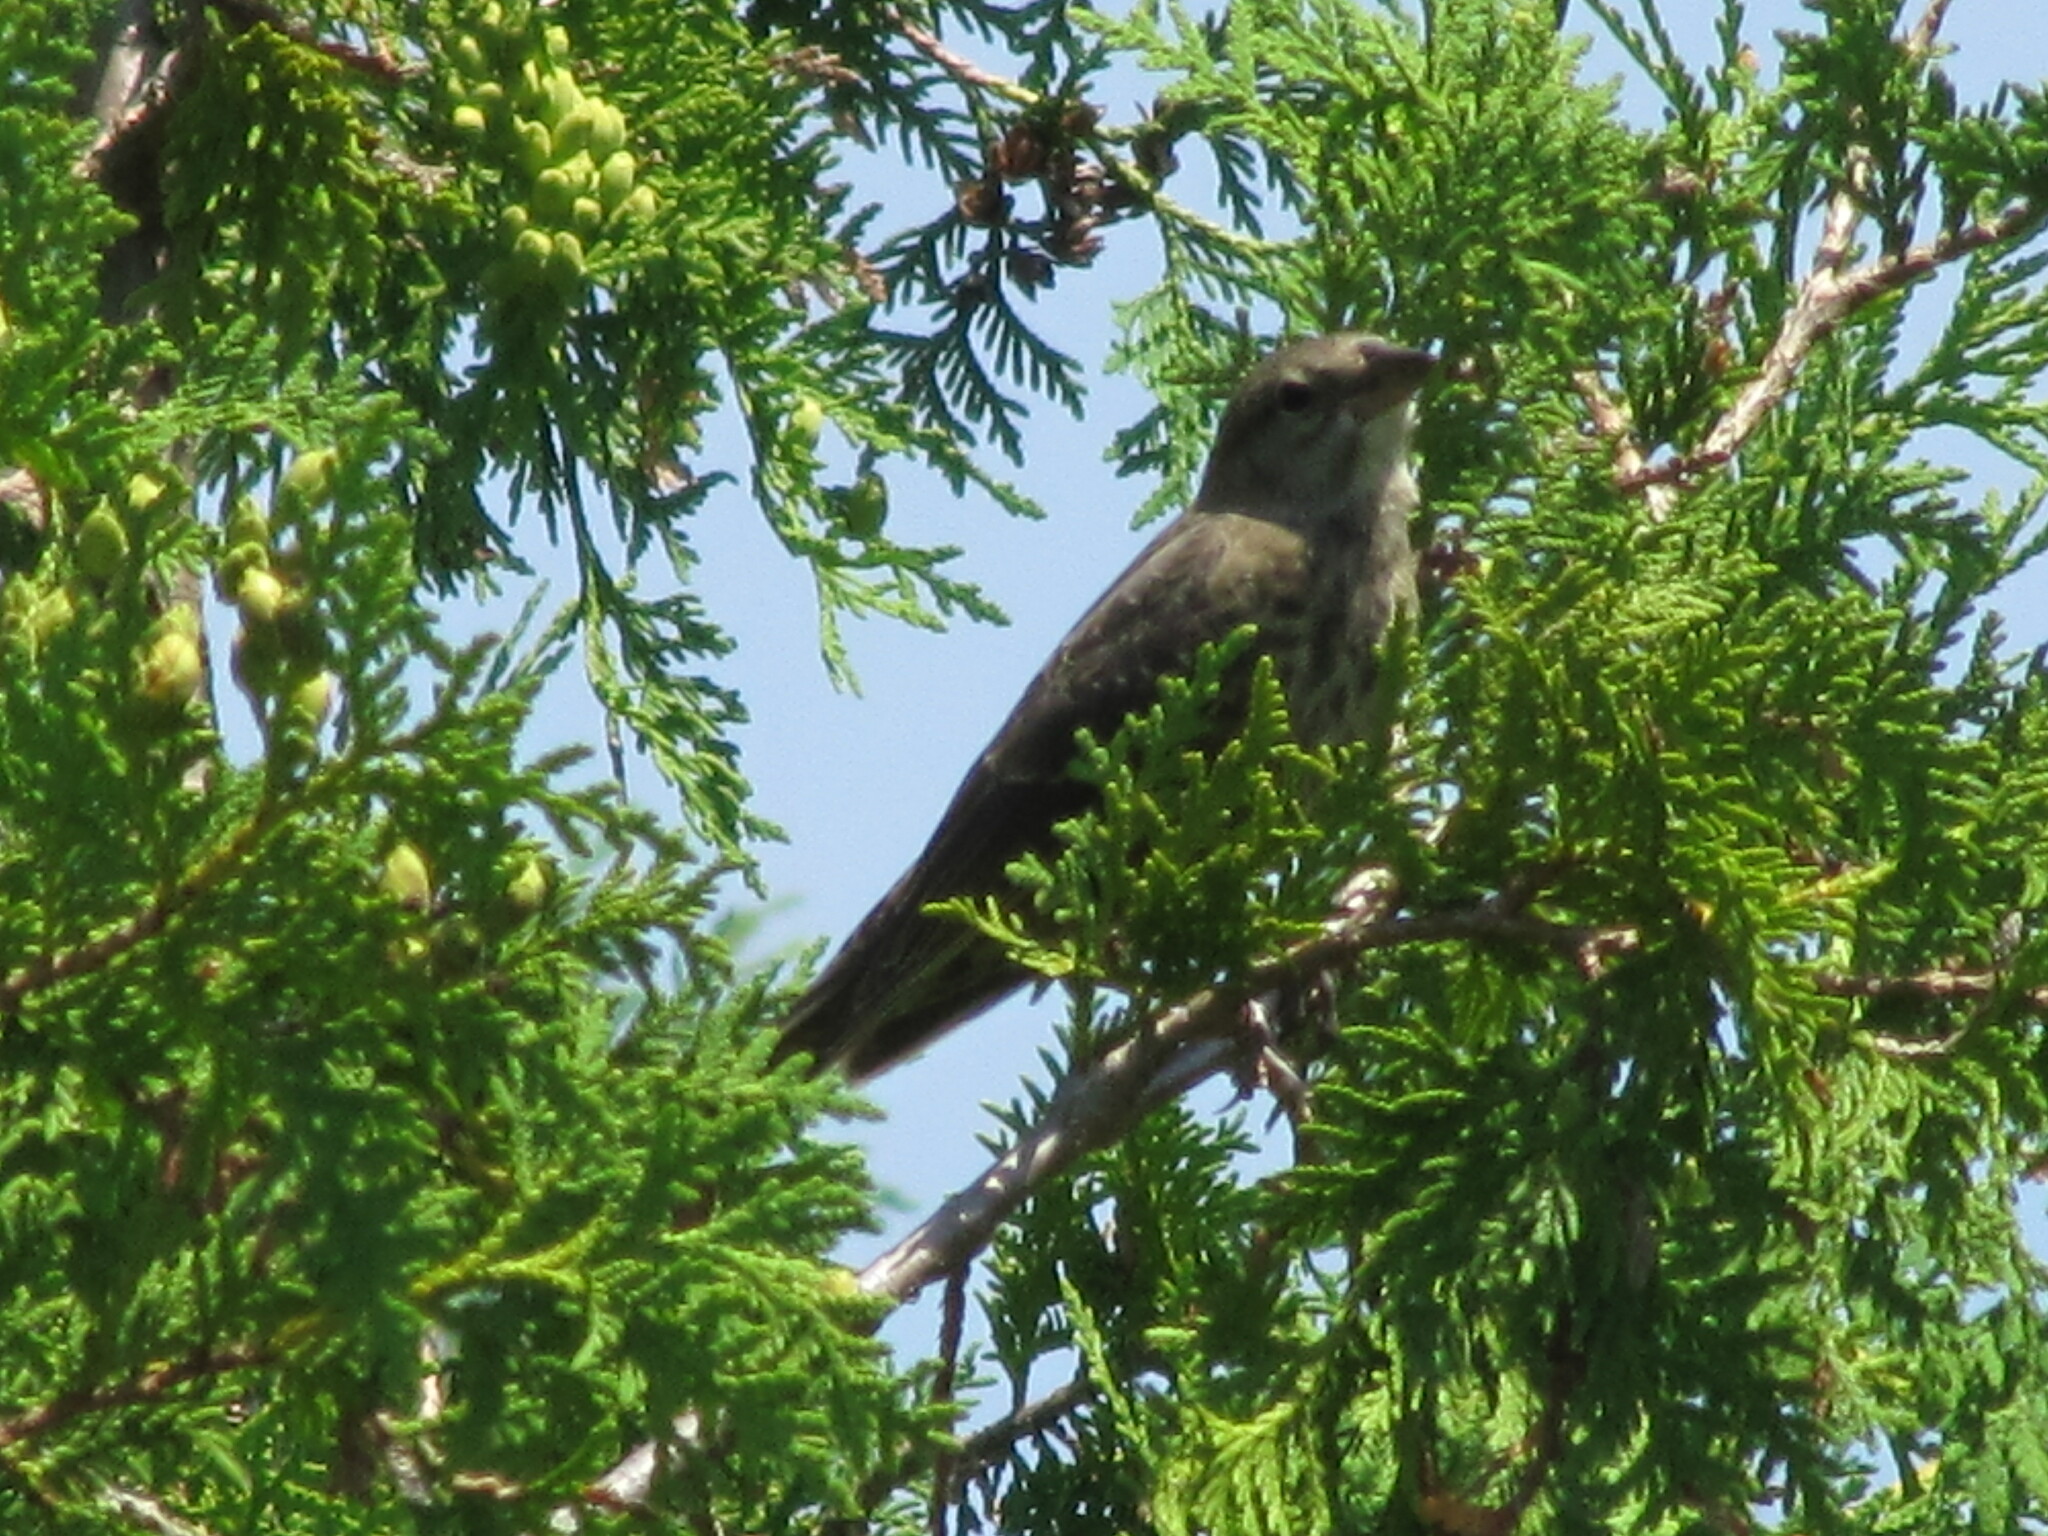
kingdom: Animalia
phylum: Chordata
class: Aves
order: Passeriformes
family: Icteridae
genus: Molothrus
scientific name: Molothrus ater
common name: Brown-headed cowbird
